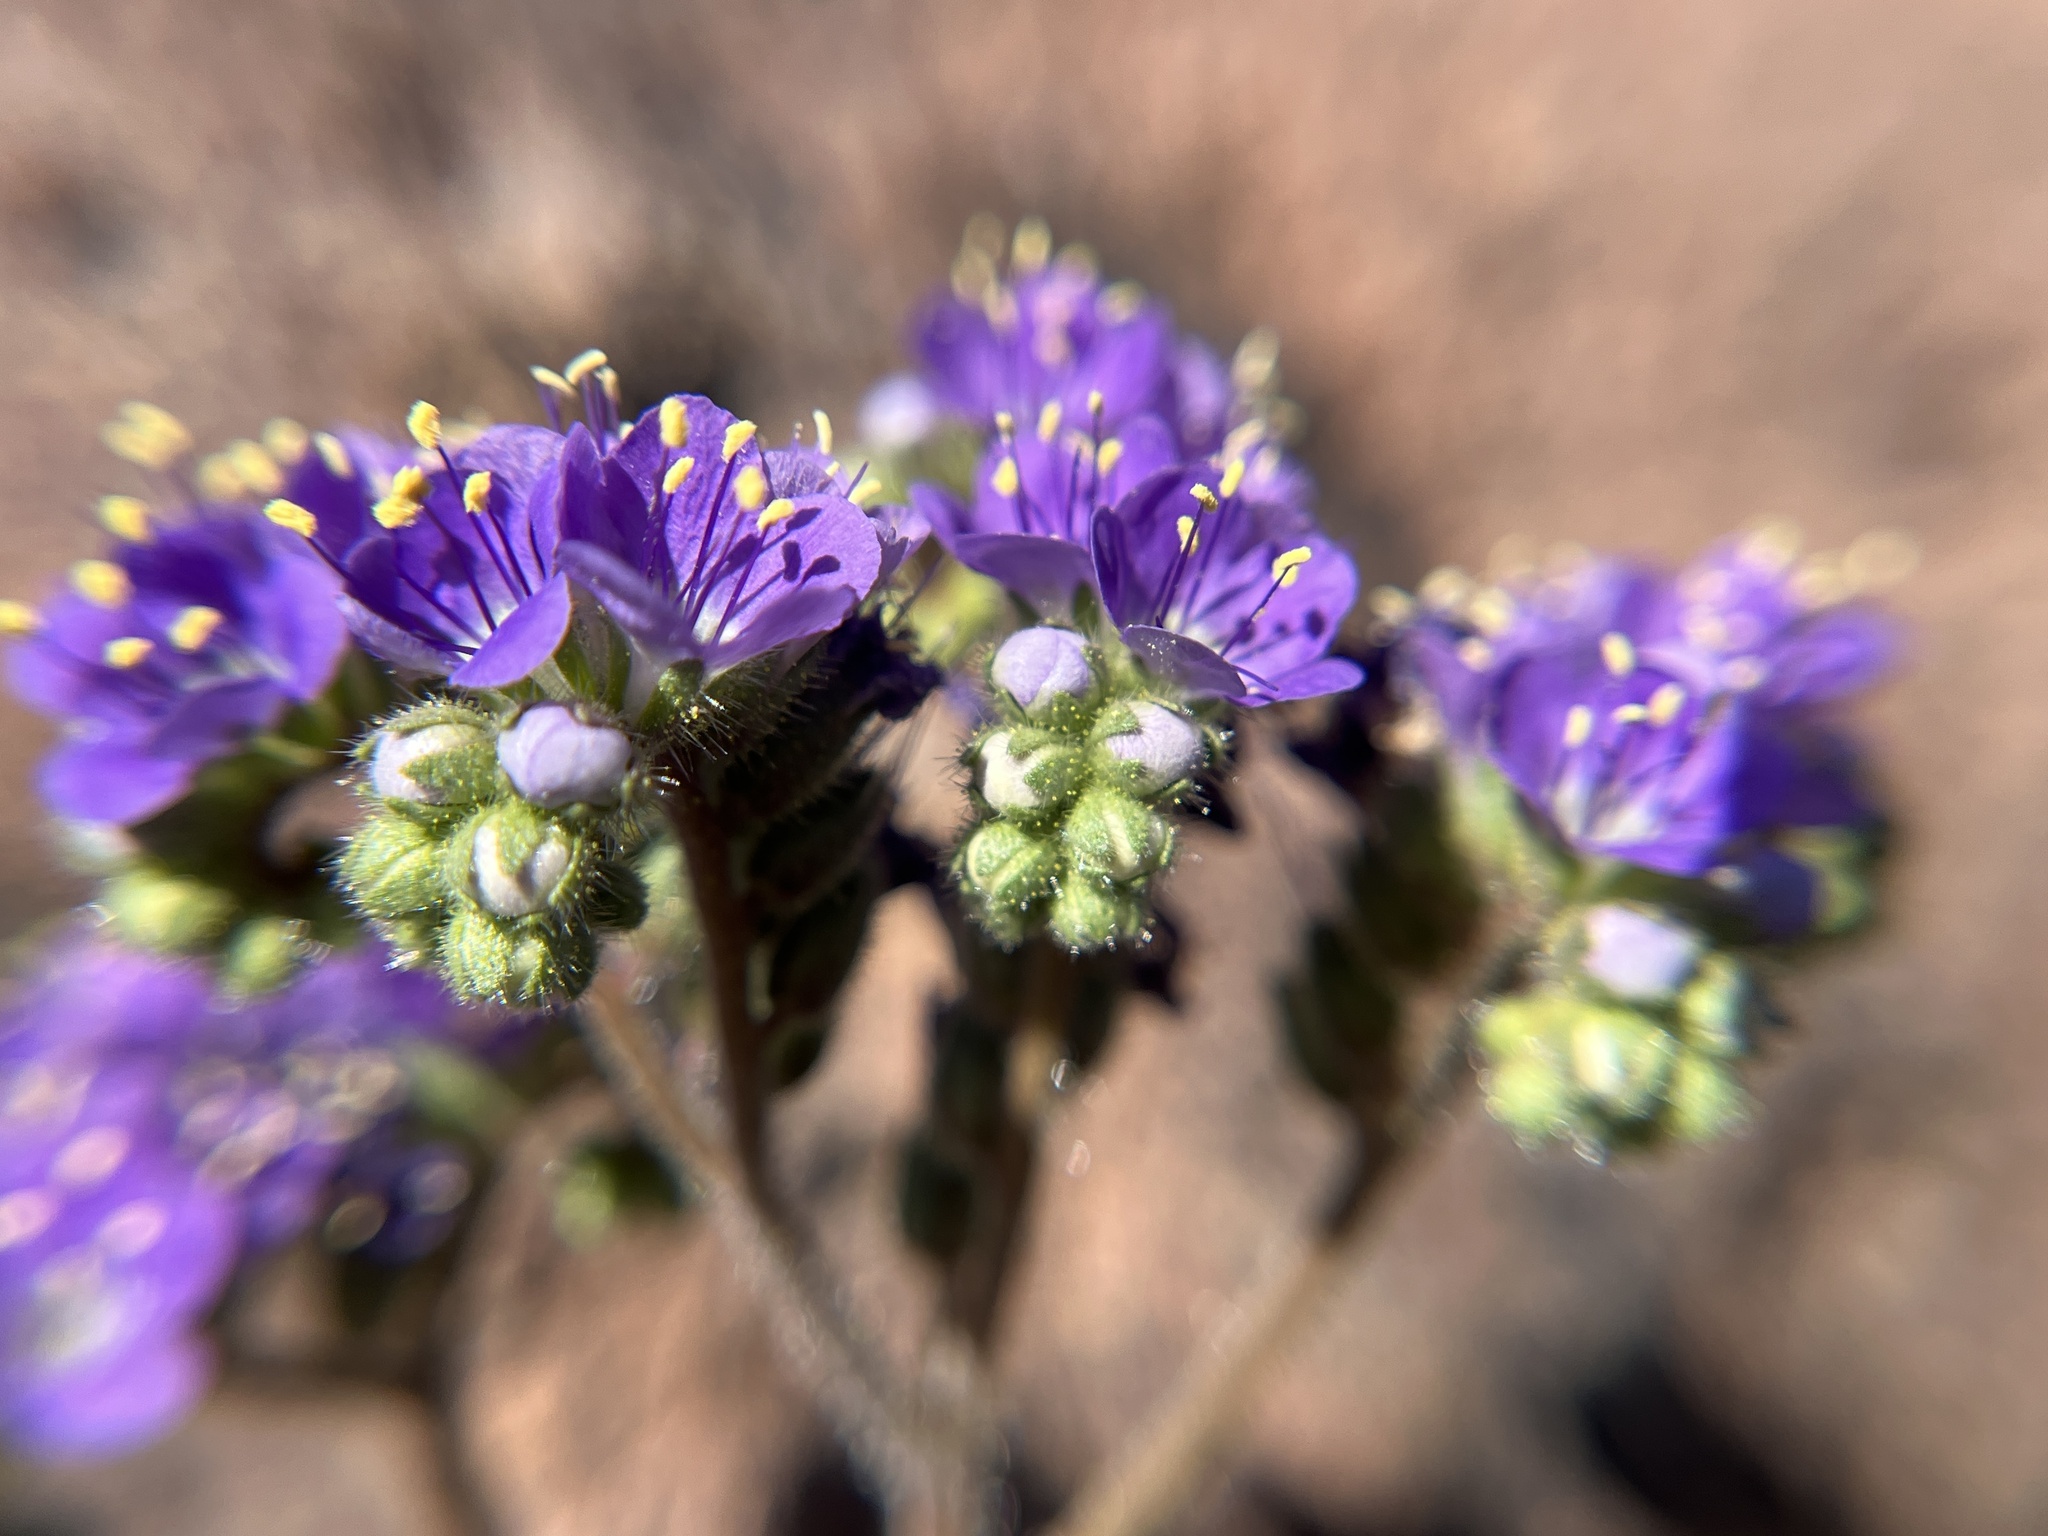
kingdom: Plantae
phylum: Tracheophyta
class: Magnoliopsida
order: Boraginales
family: Hydrophyllaceae
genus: Phacelia
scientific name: Phacelia crenulata
